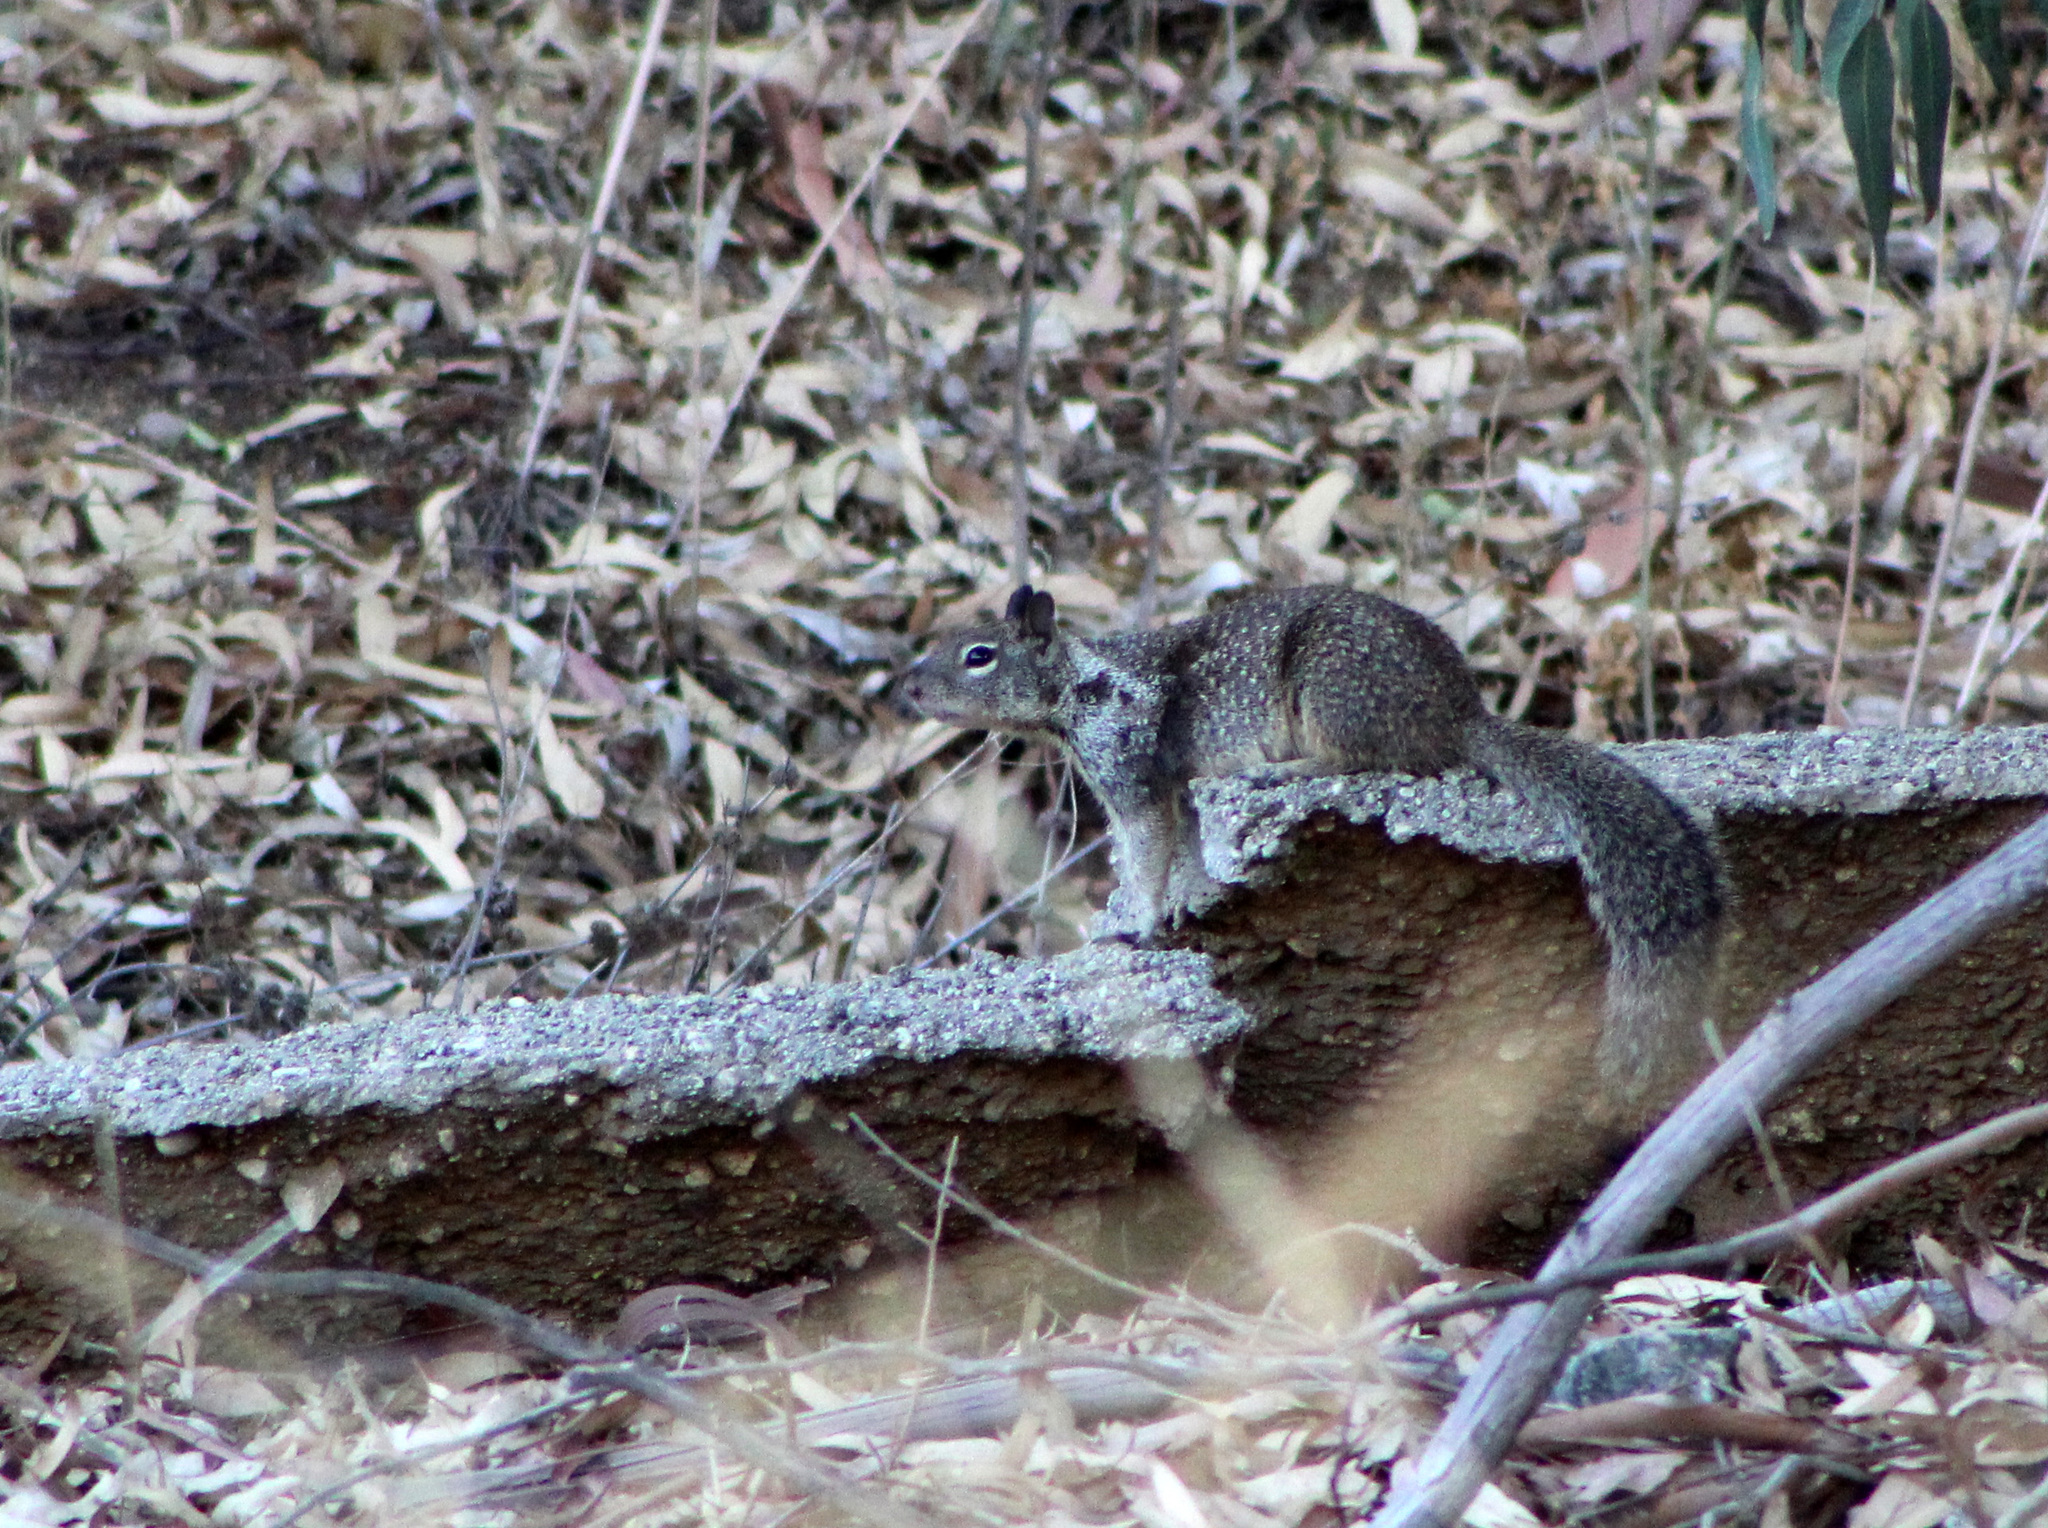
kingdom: Animalia
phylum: Chordata
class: Mammalia
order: Rodentia
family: Sciuridae
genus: Otospermophilus
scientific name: Otospermophilus beecheyi
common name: California ground squirrel
